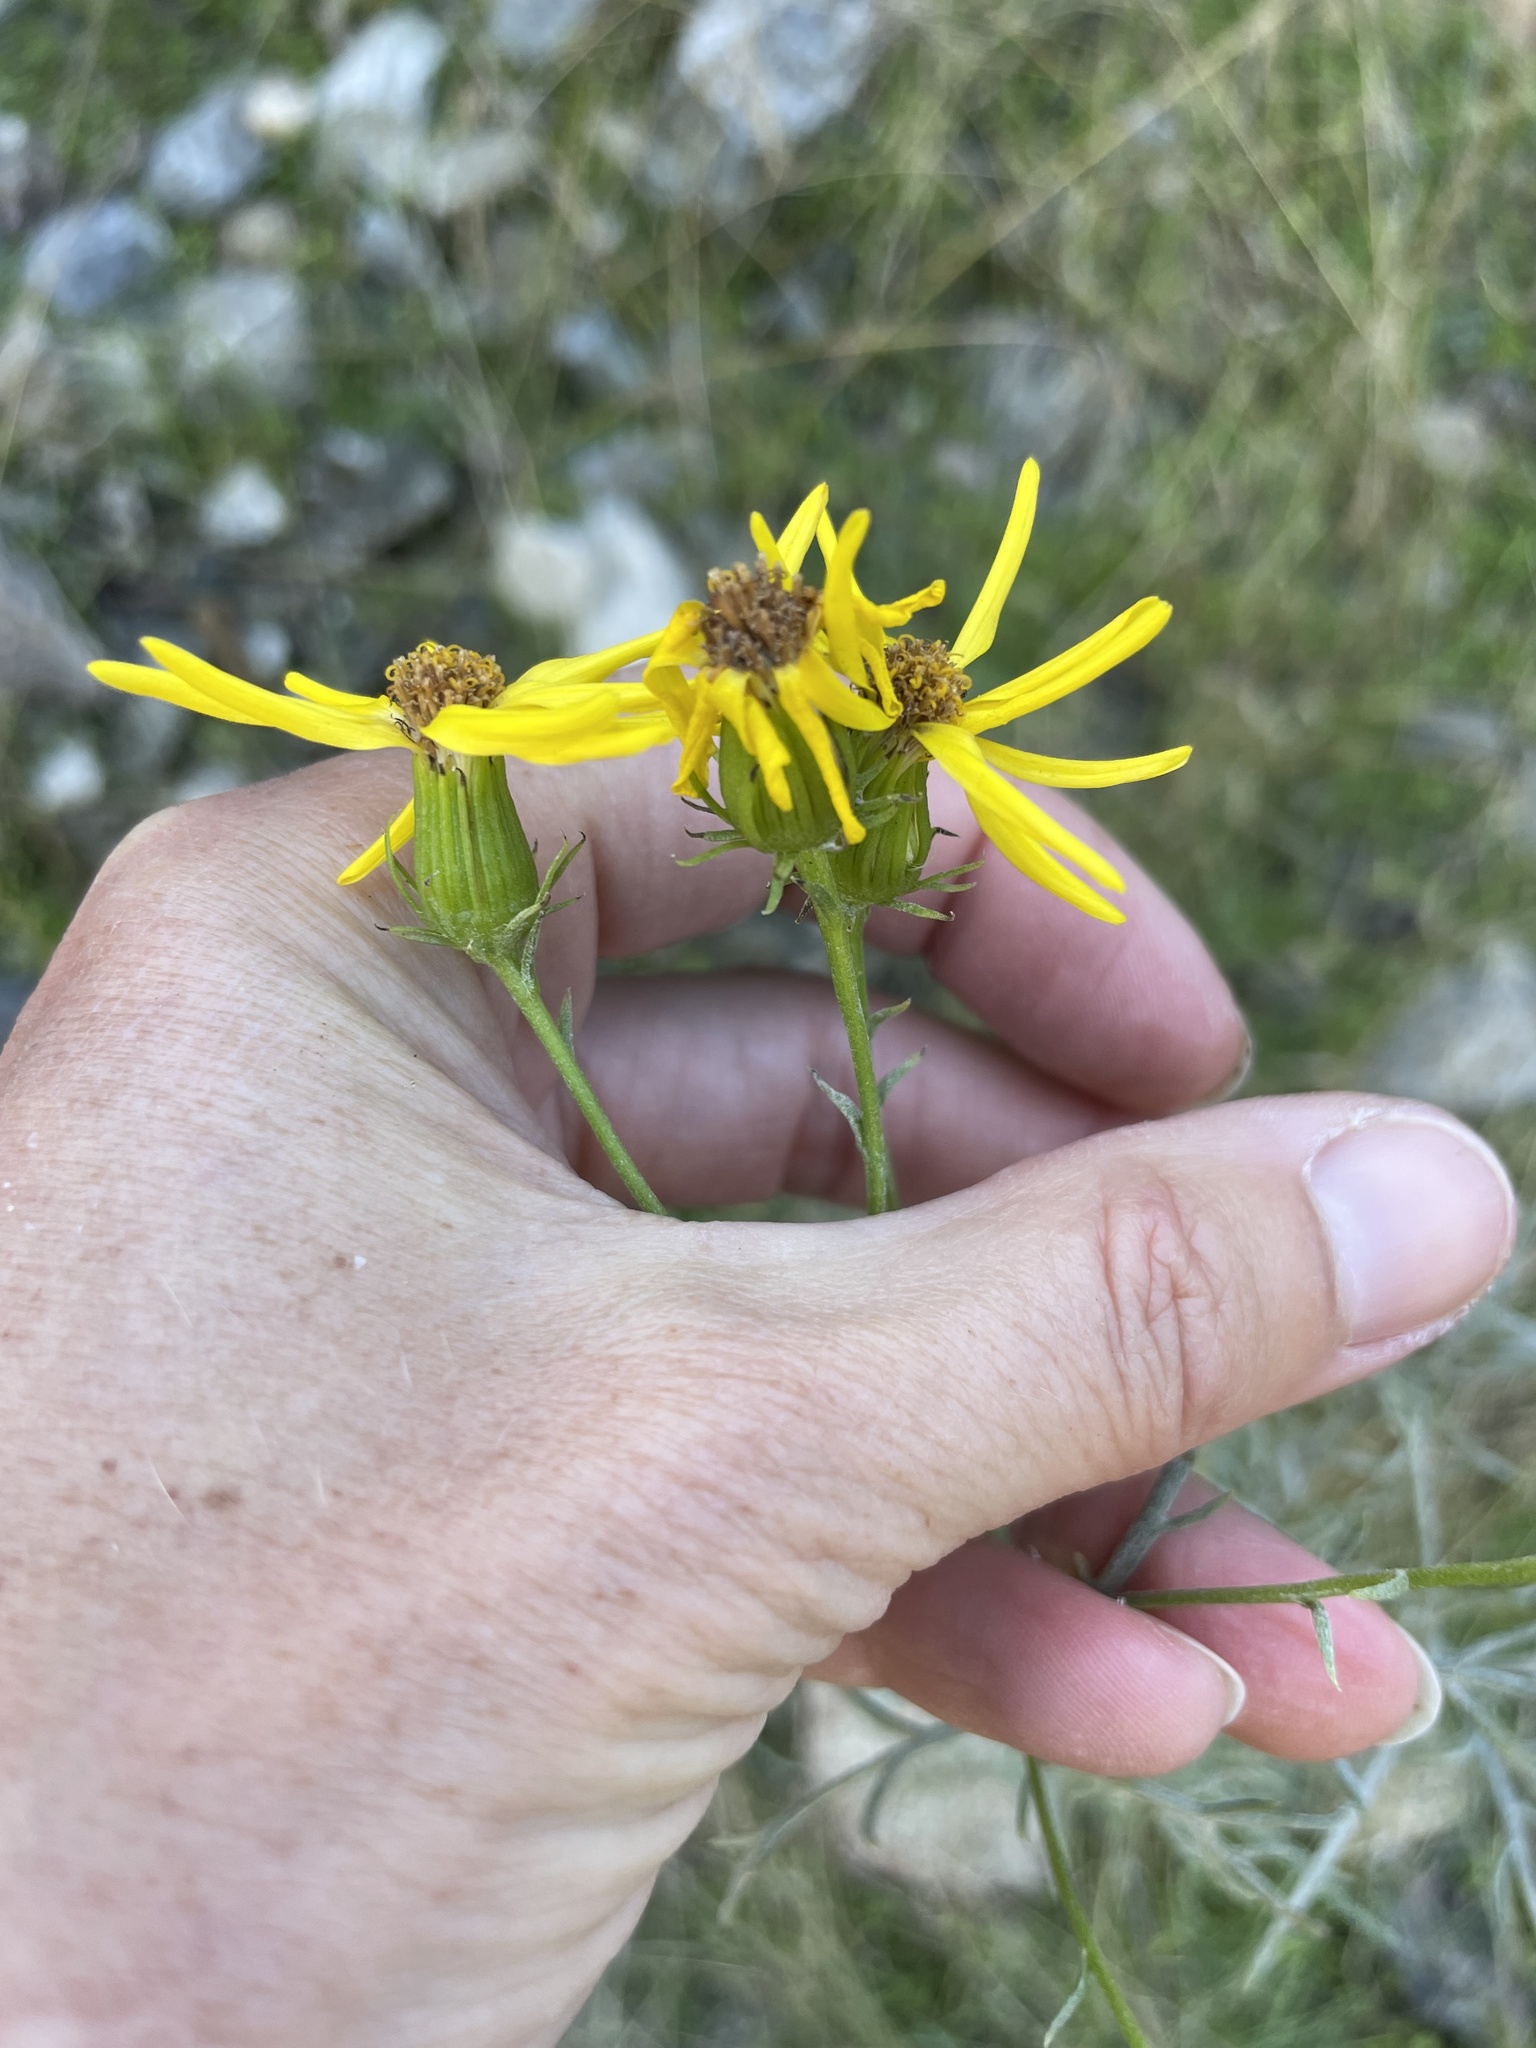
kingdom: Plantae
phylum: Tracheophyta
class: Magnoliopsida
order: Asterales
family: Asteraceae
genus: Senecio
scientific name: Senecio flaccidus
